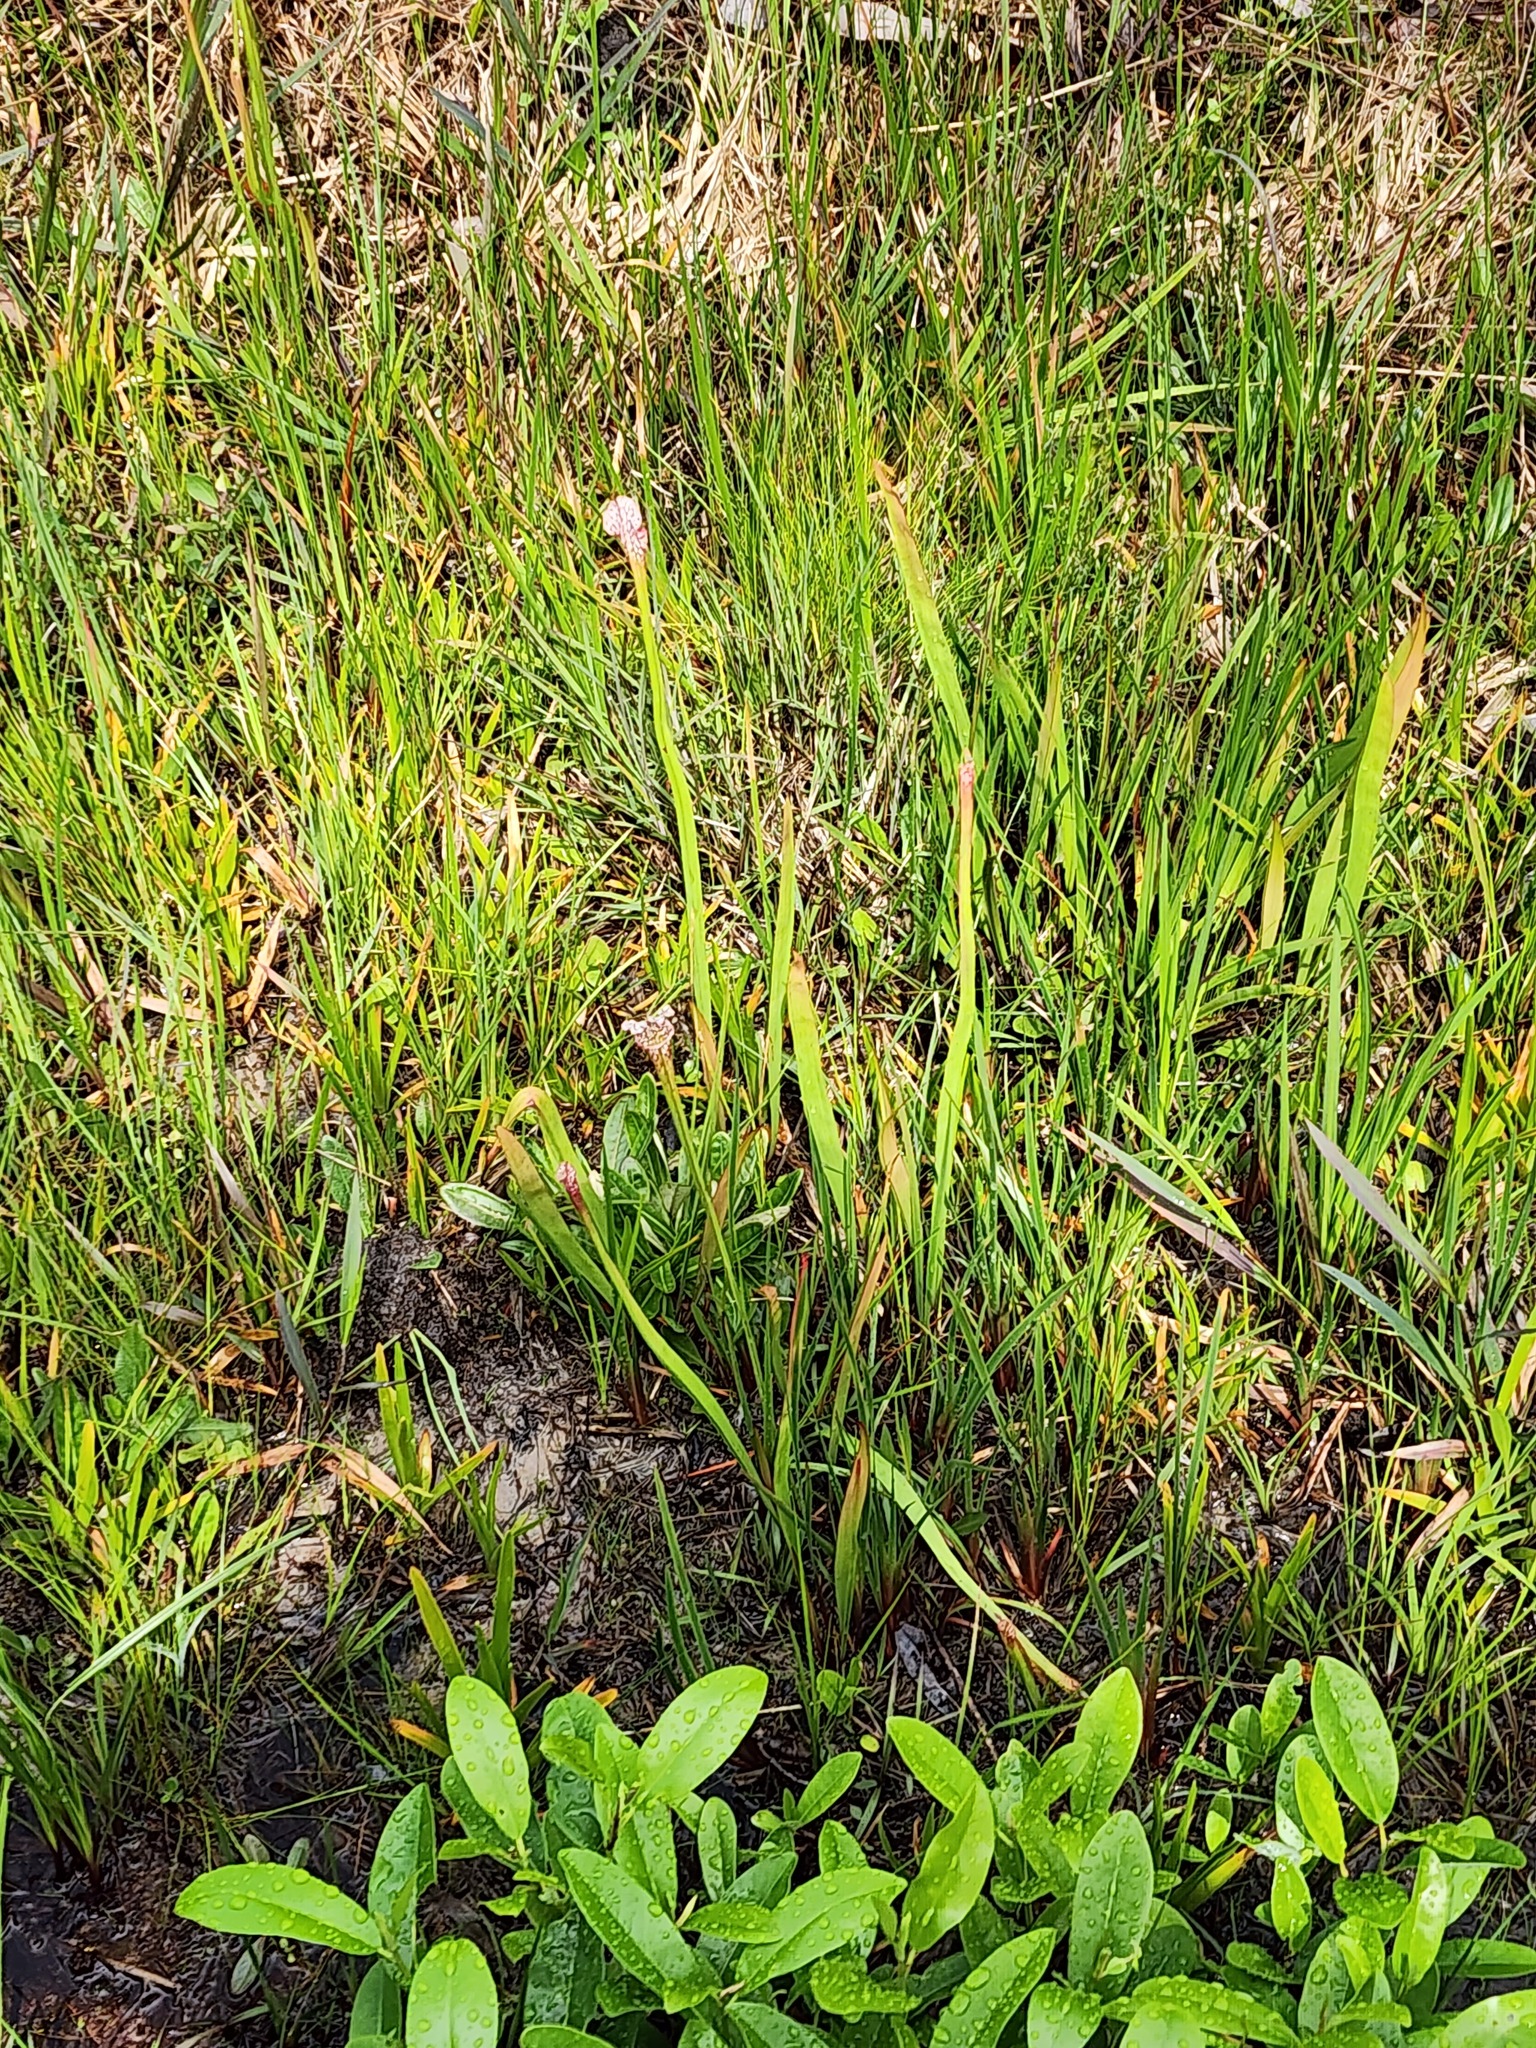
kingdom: Plantae
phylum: Tracheophyta
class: Magnoliopsida
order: Ericales
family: Sarraceniaceae
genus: Sarracenia
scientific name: Sarracenia leucophylla
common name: Purple trumpetleaf
